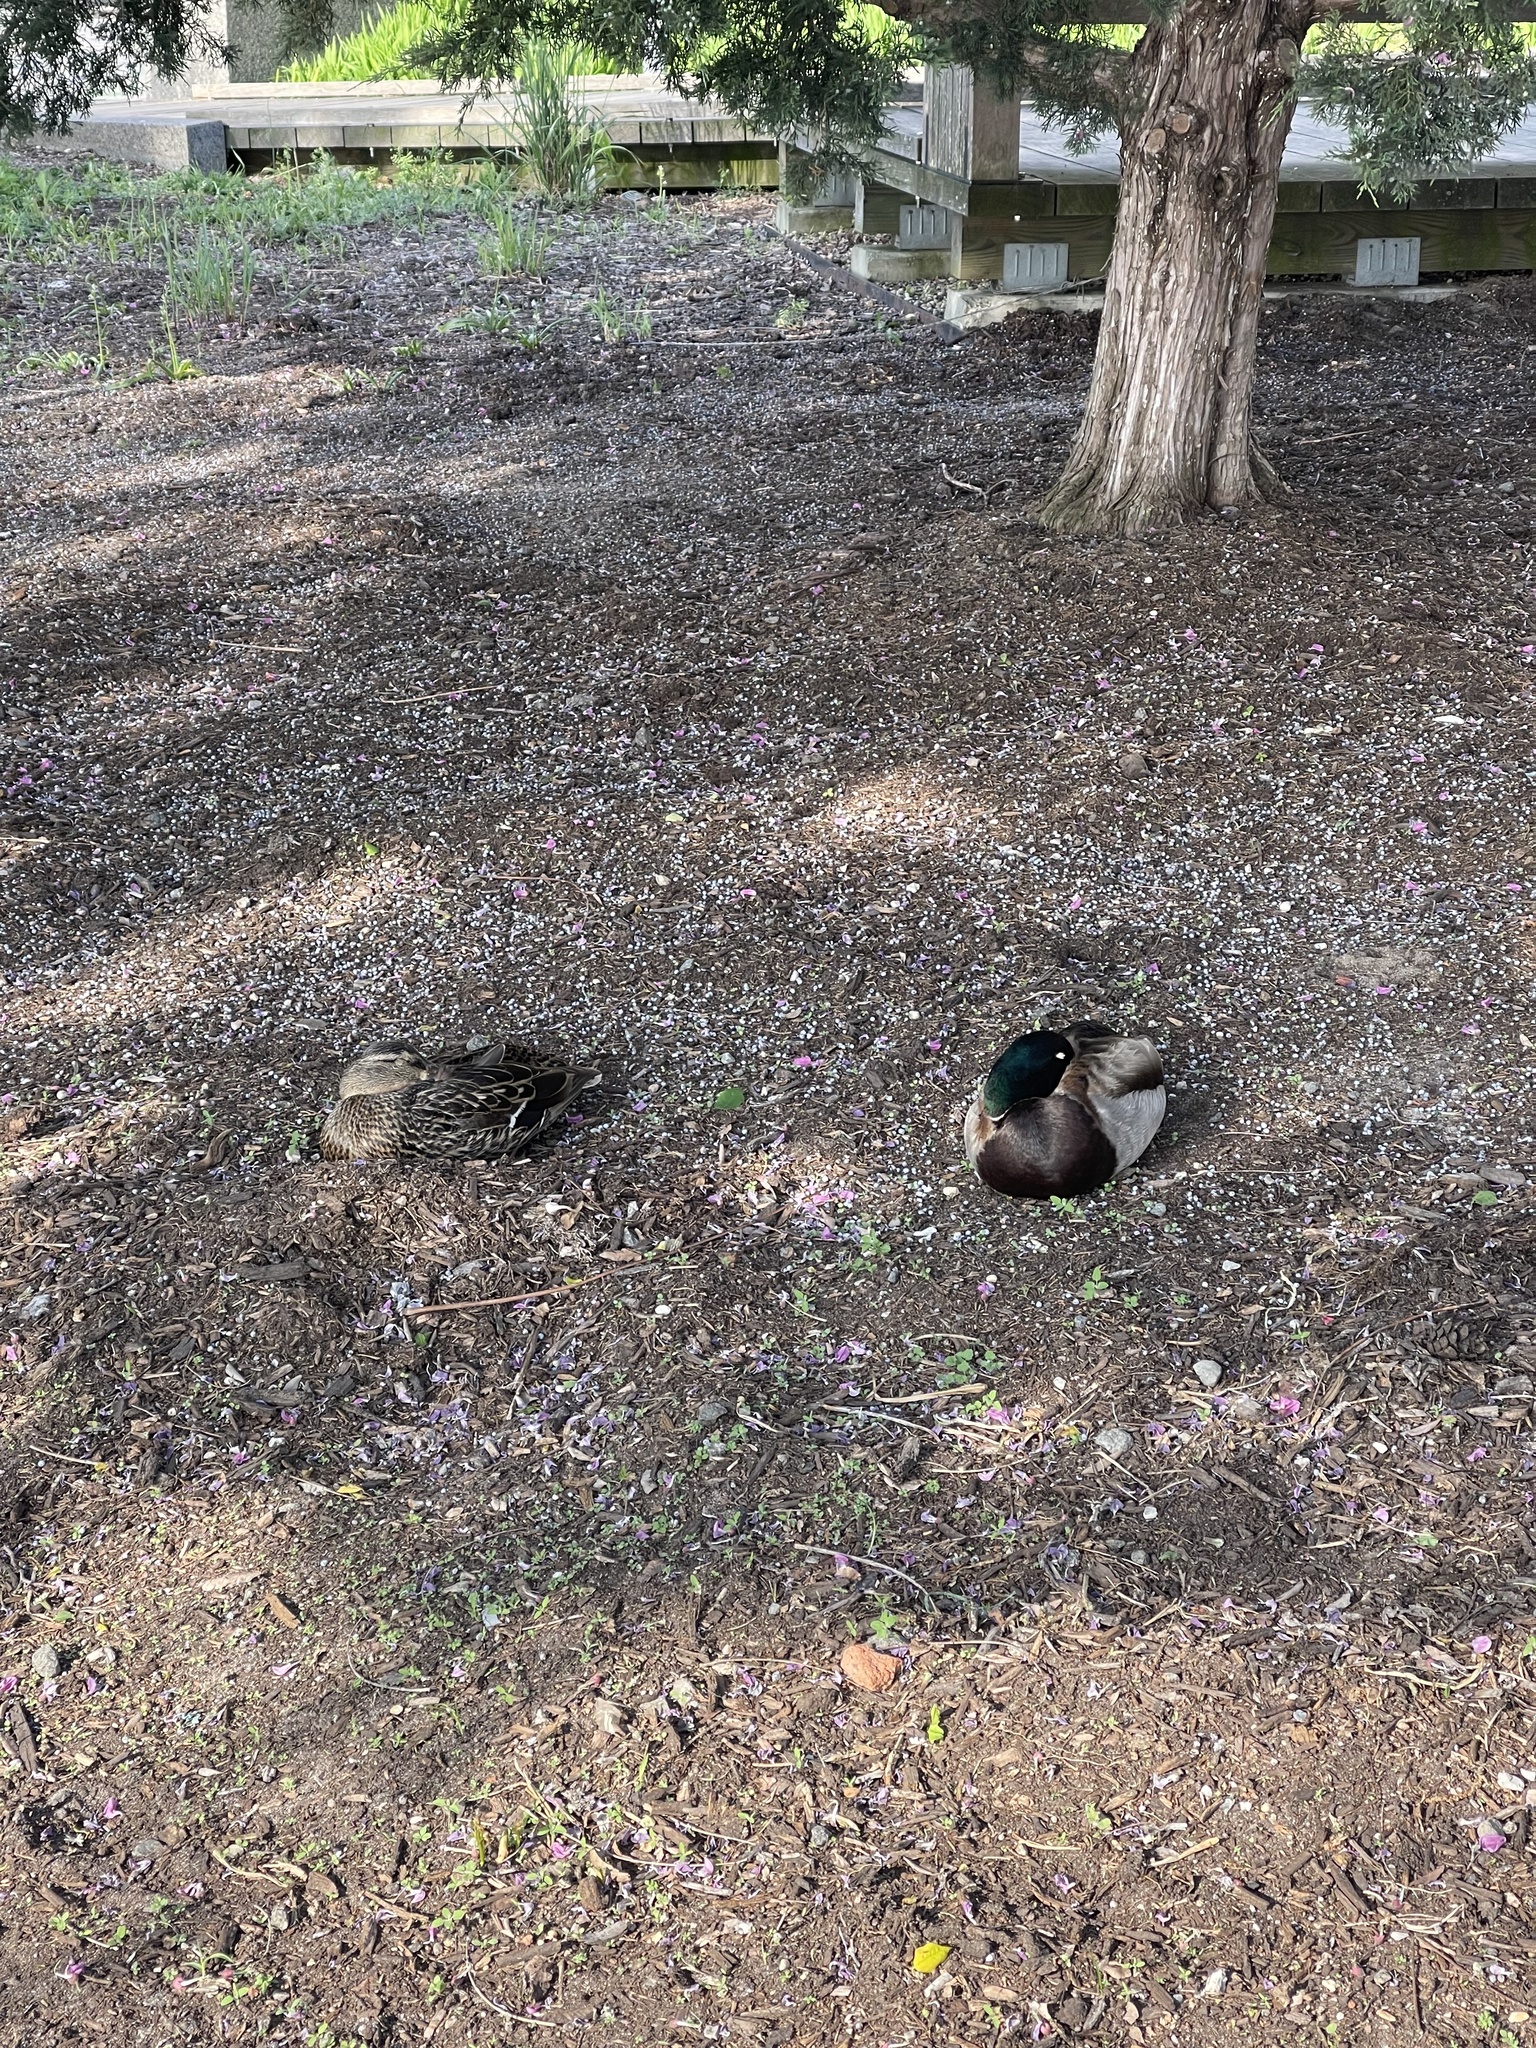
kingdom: Animalia
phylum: Chordata
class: Aves
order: Anseriformes
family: Anatidae
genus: Anas
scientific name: Anas platyrhynchos
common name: Mallard
